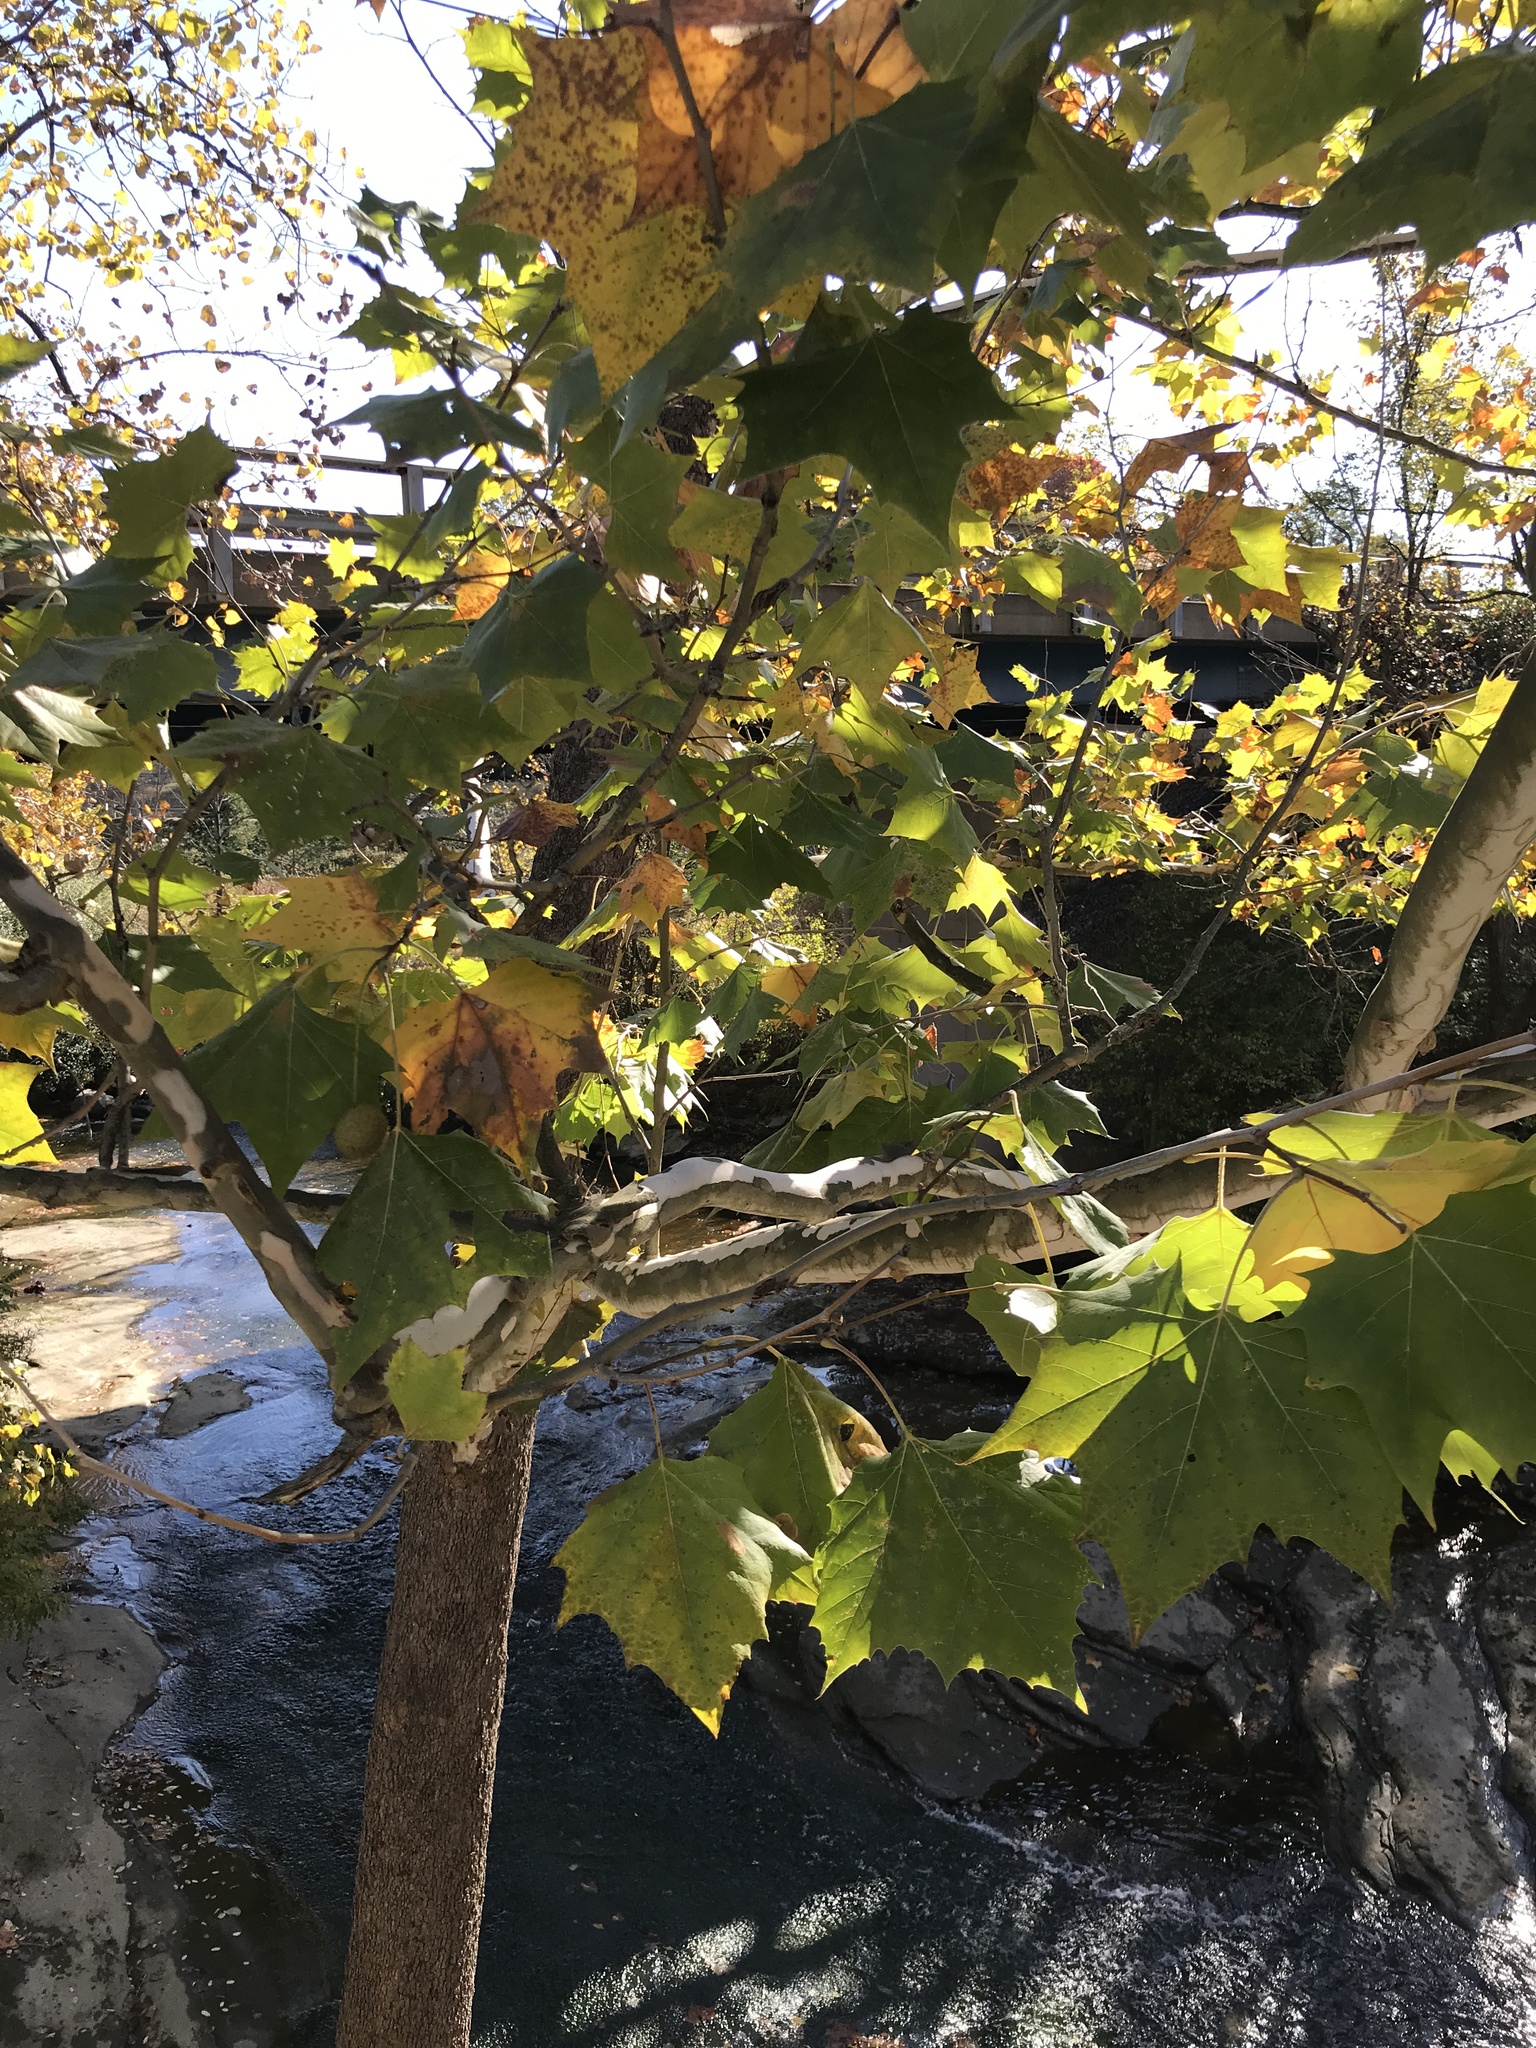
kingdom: Plantae
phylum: Tracheophyta
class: Magnoliopsida
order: Proteales
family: Platanaceae
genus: Platanus
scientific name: Platanus occidentalis
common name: American sycamore
